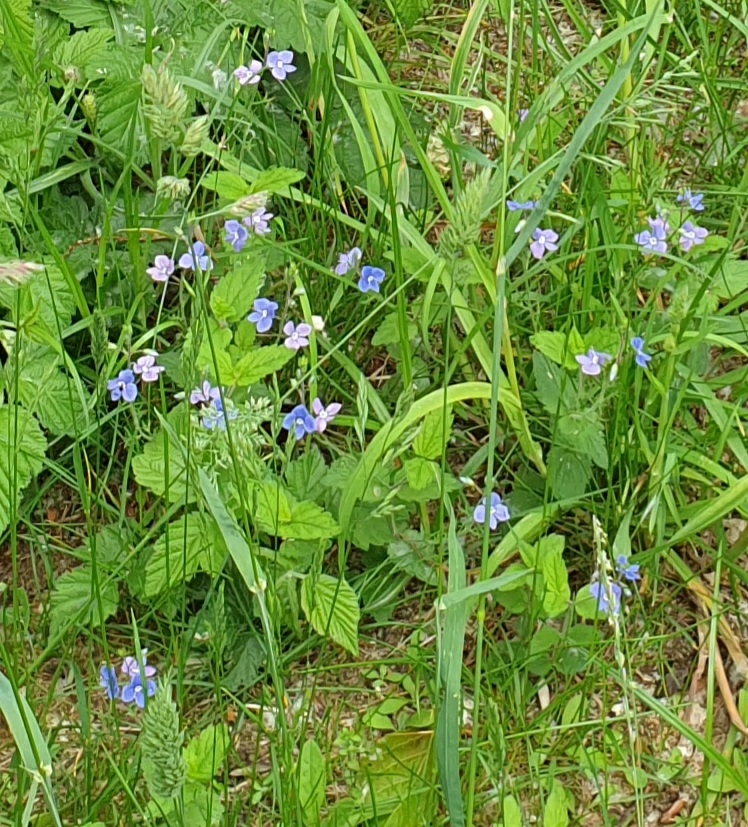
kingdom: Plantae
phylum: Tracheophyta
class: Magnoliopsida
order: Lamiales
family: Plantaginaceae
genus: Veronica
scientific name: Veronica chamaedrys
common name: Germander speedwell
